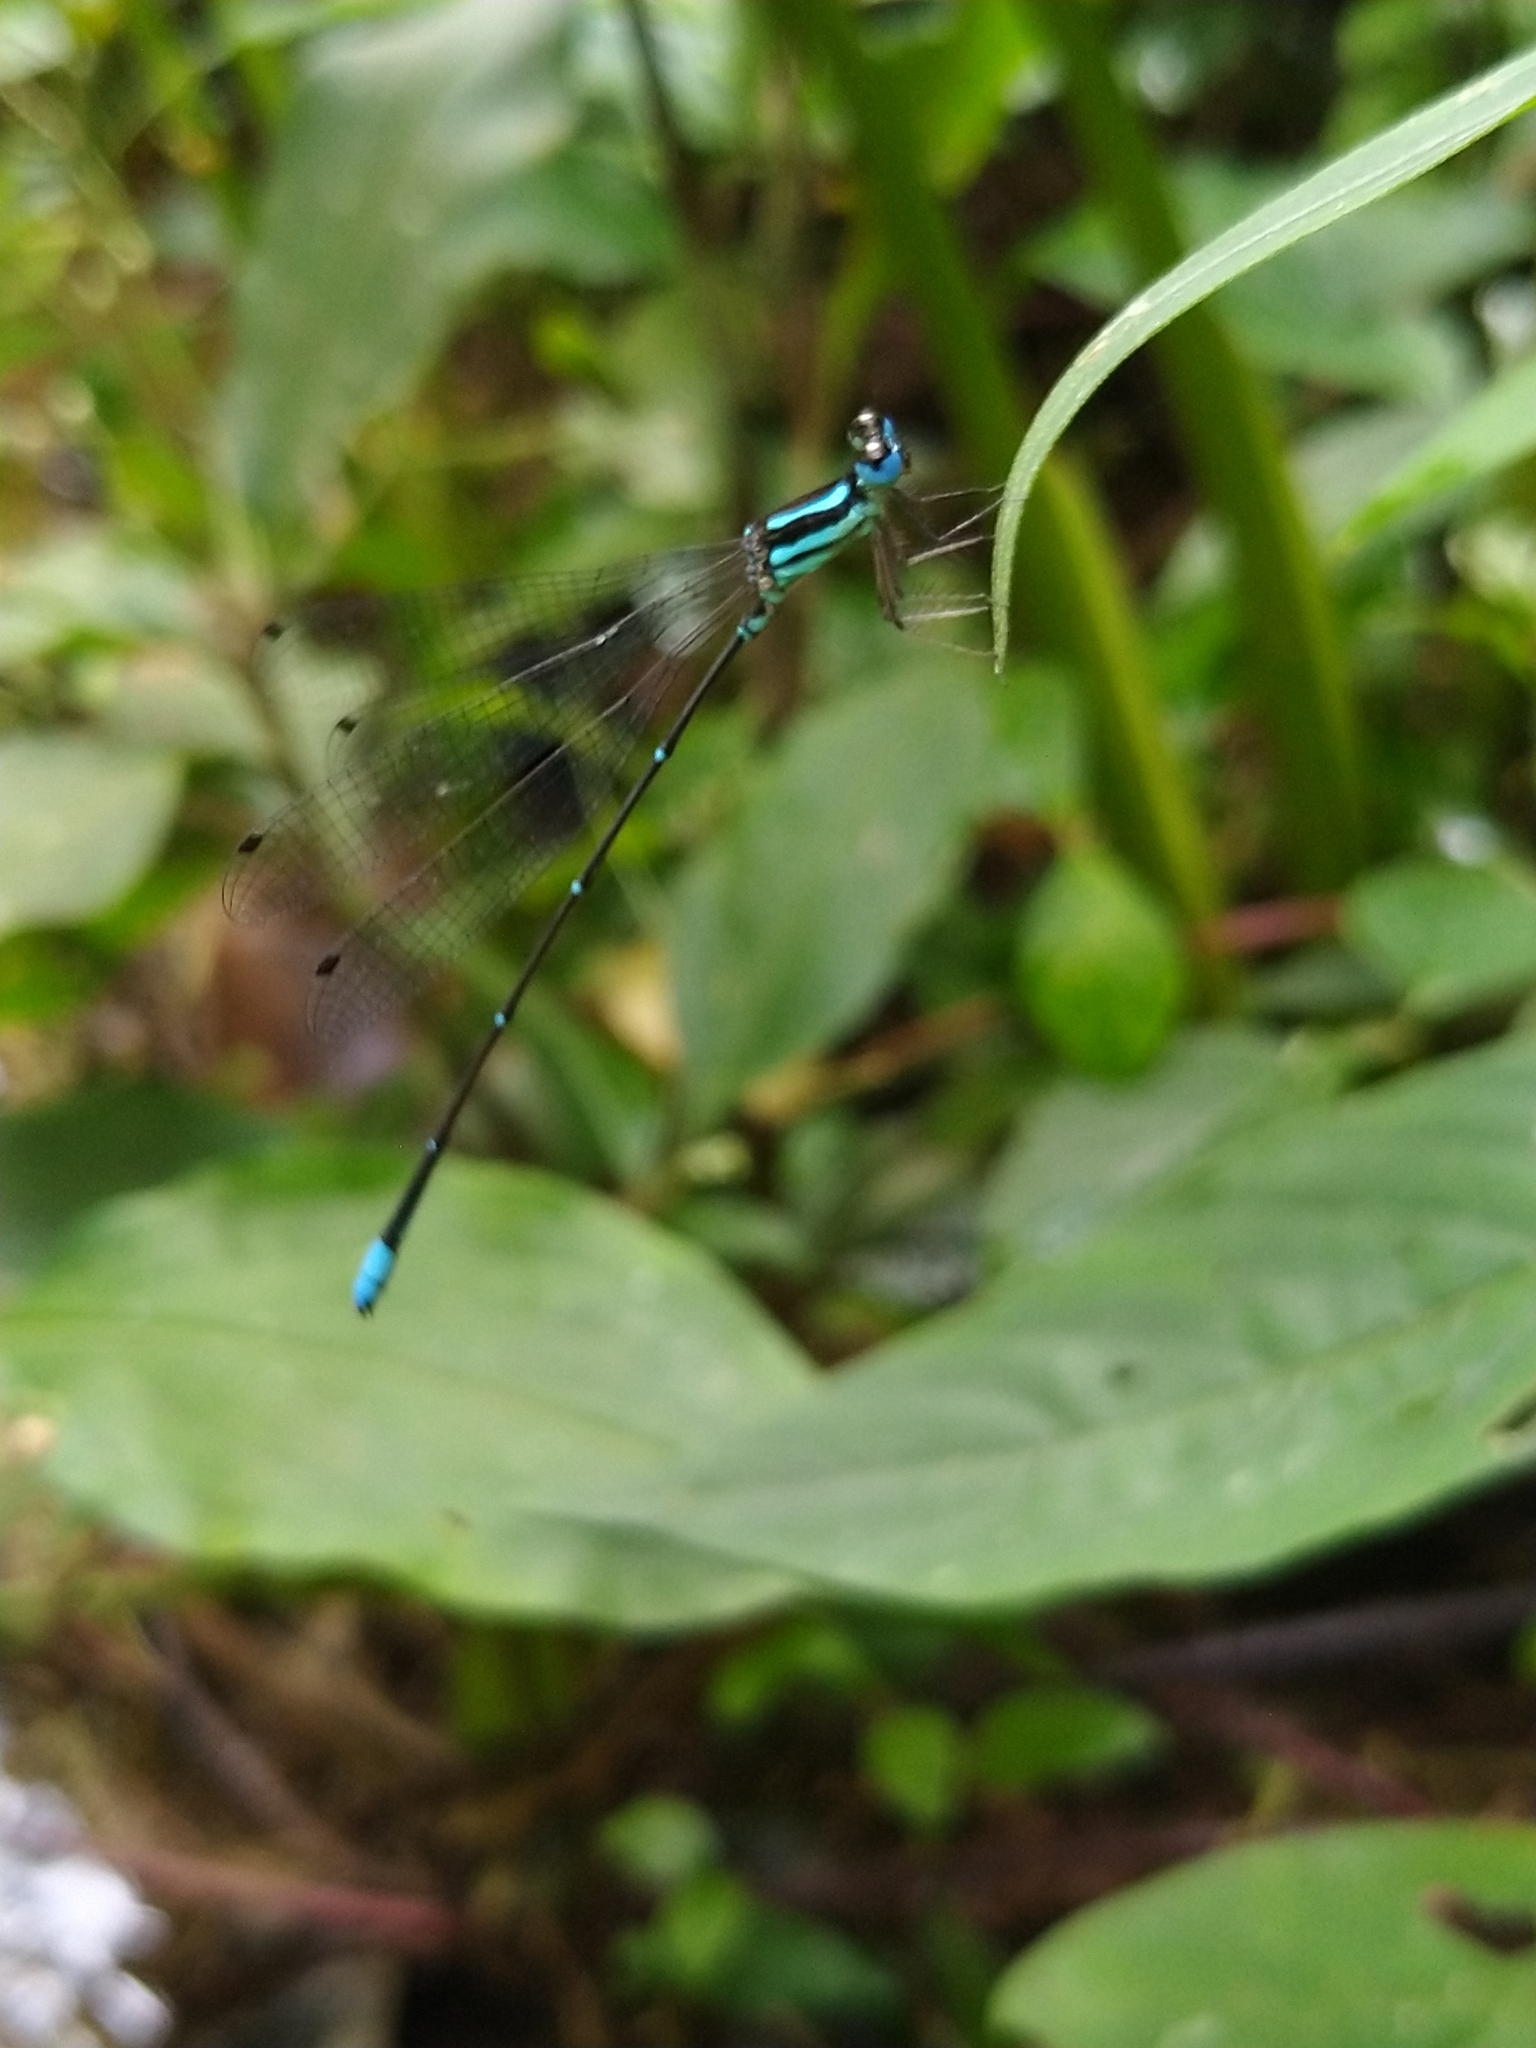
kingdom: Animalia
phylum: Arthropoda
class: Insecta
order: Odonata
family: Platycnemididae
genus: Caconeura
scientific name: Caconeura risi
